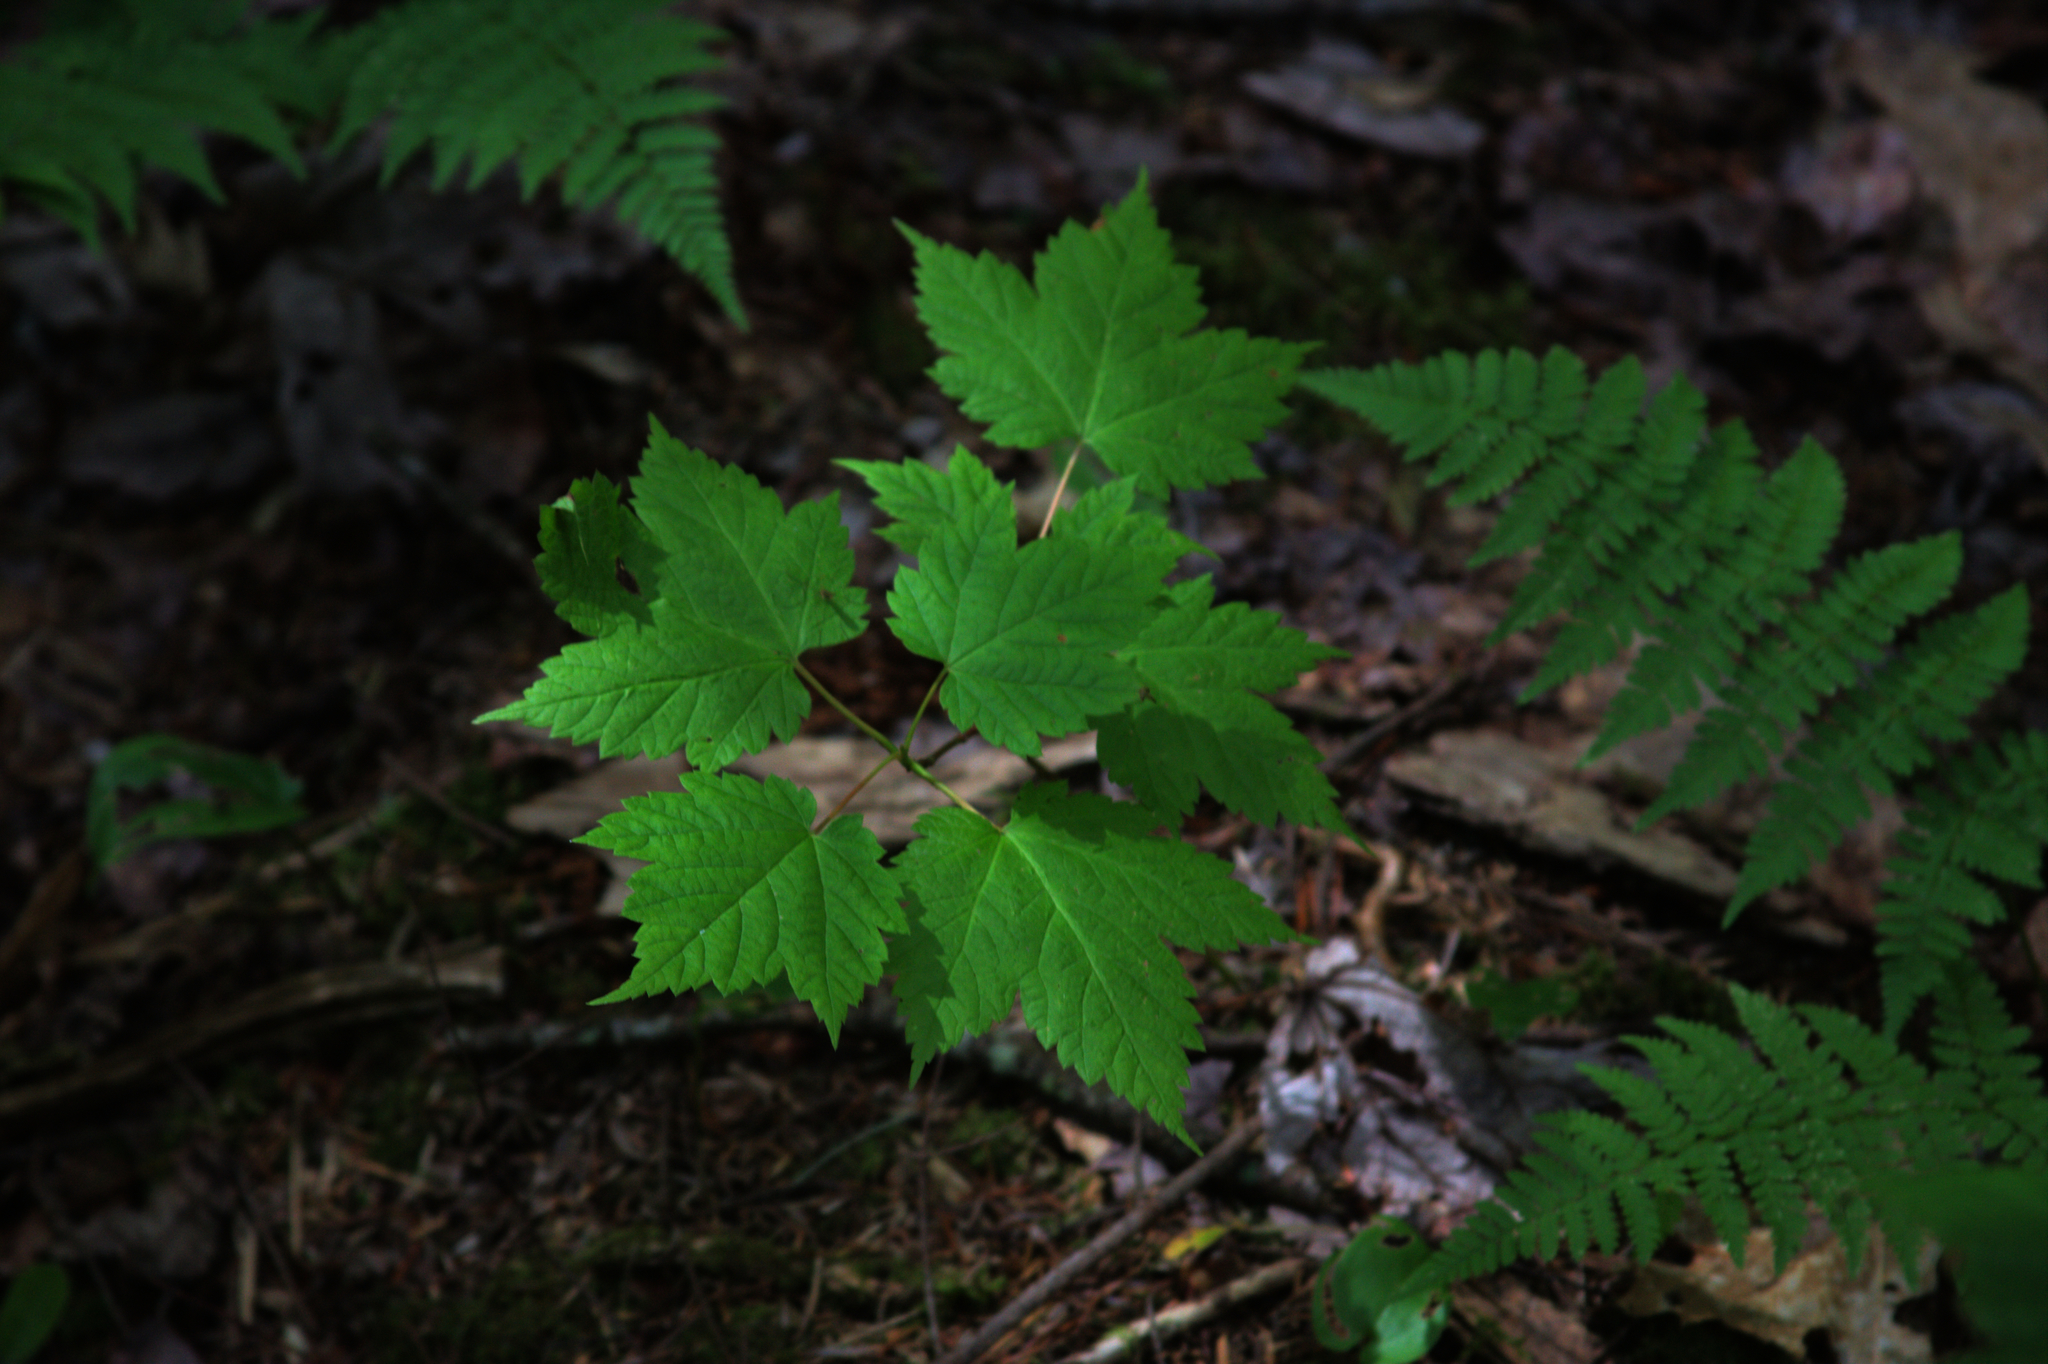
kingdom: Plantae
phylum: Tracheophyta
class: Magnoliopsida
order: Sapindales
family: Sapindaceae
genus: Acer
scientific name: Acer spicatum
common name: Mountain maple
